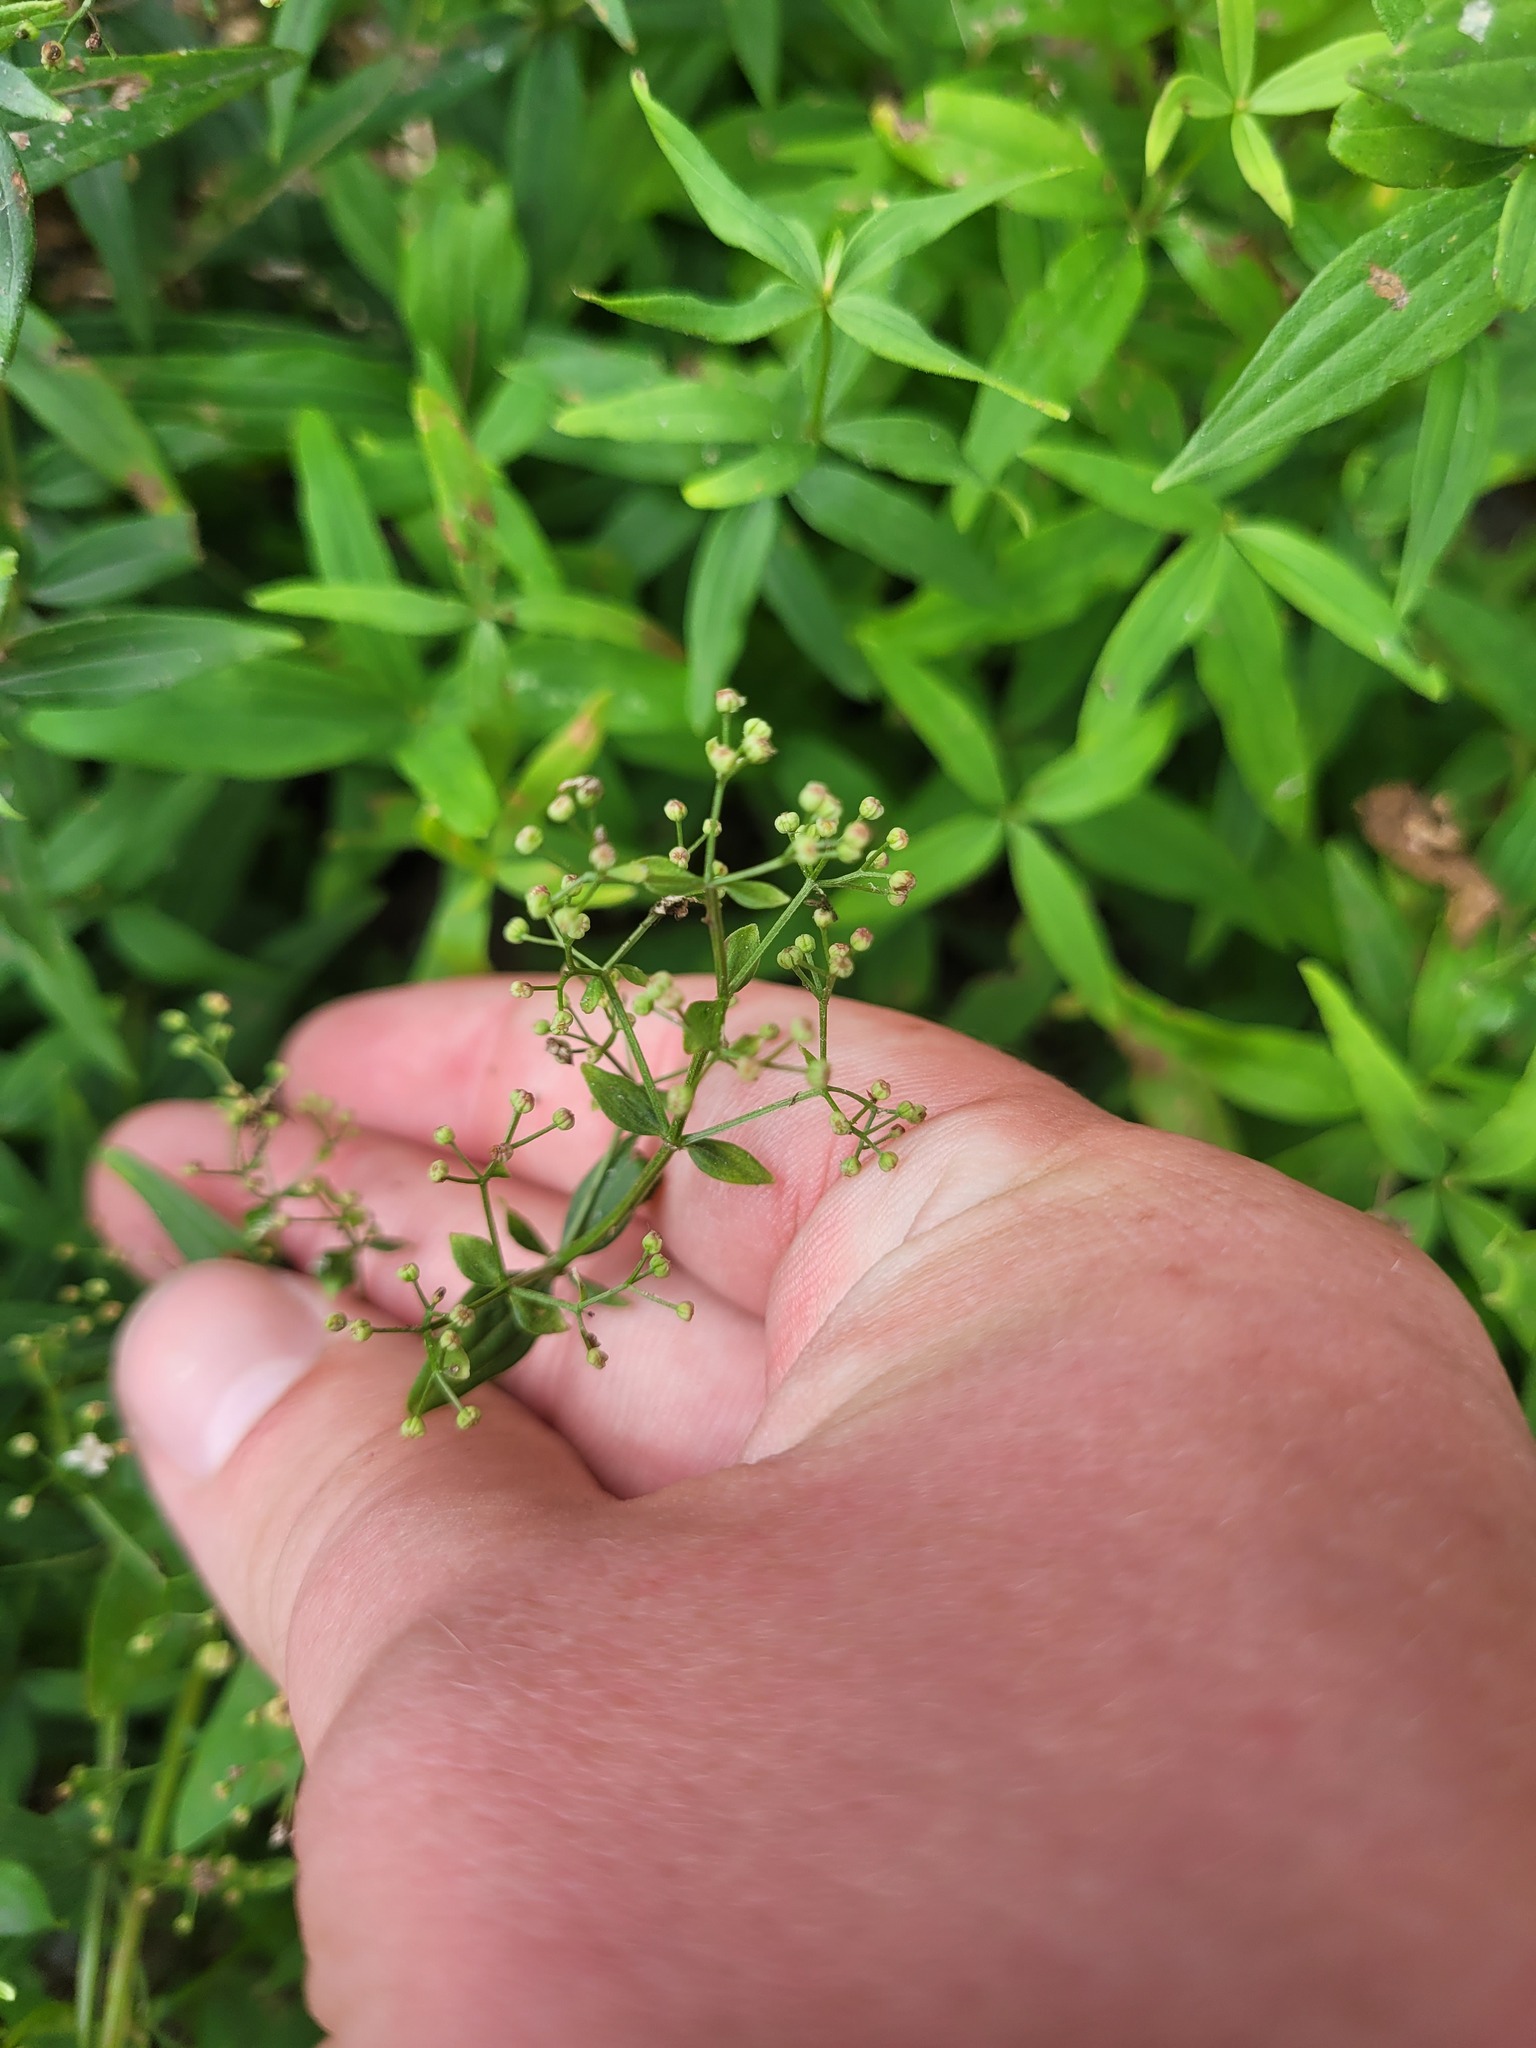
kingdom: Plantae
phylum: Tracheophyta
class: Magnoliopsida
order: Gentianales
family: Rubiaceae
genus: Galium
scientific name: Galium rubioides
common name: European bedstraw
